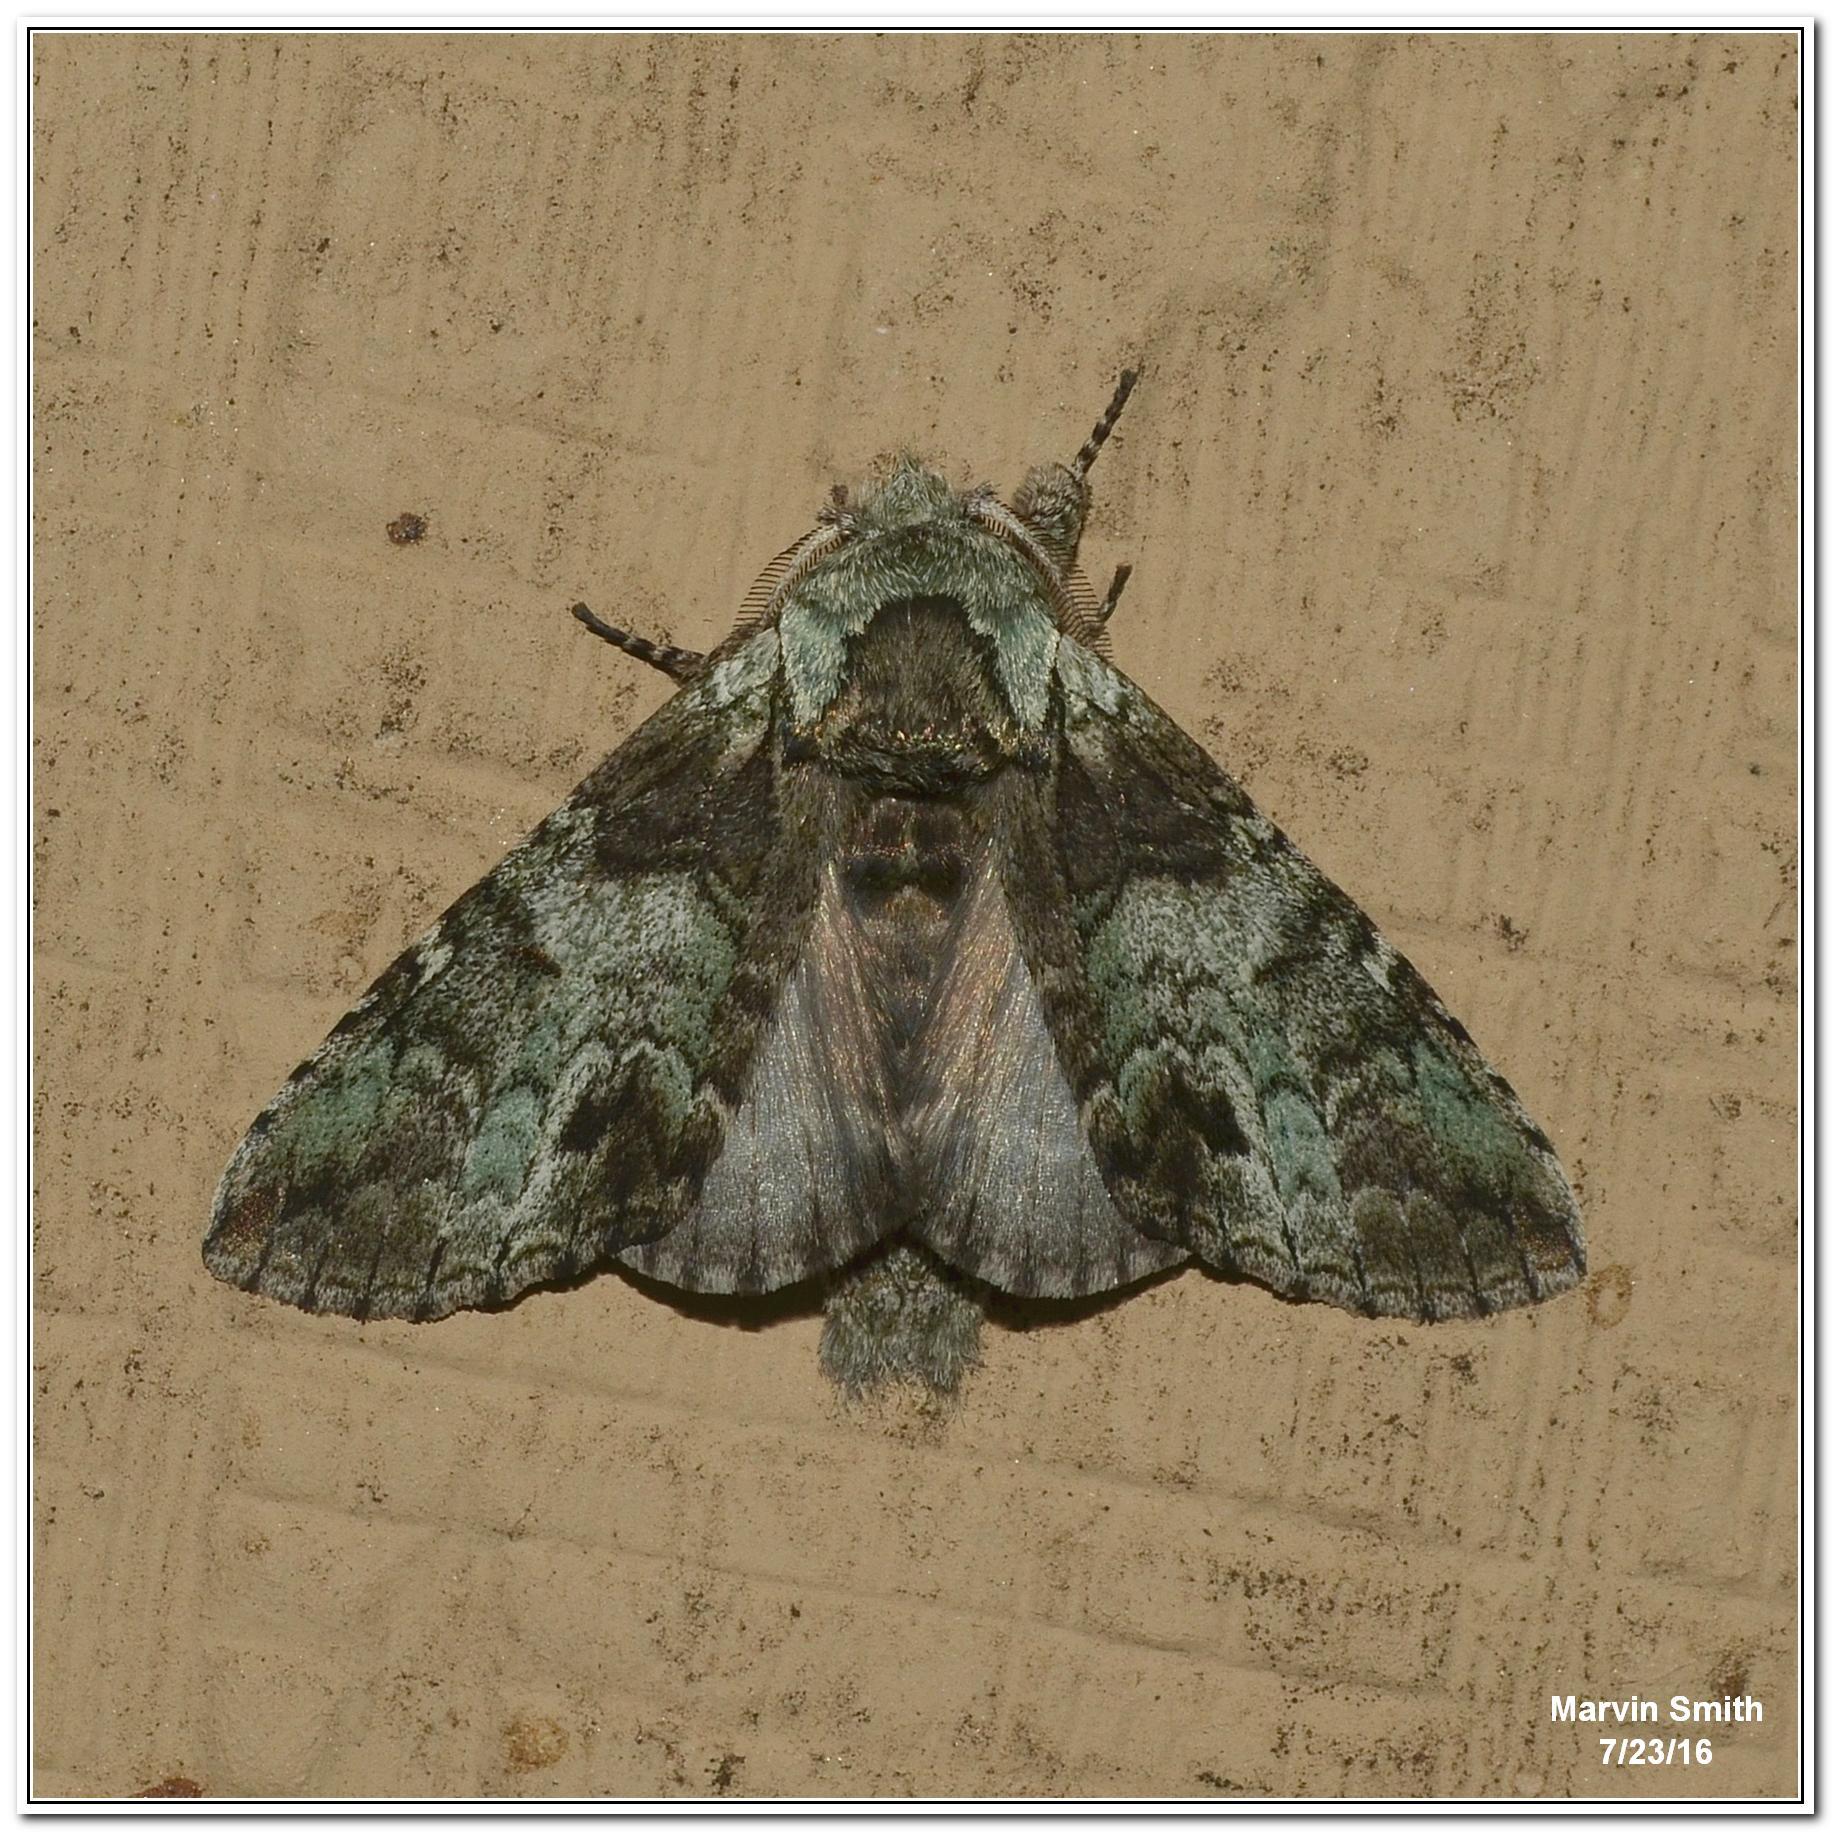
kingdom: Animalia
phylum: Arthropoda
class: Insecta
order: Lepidoptera
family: Notodontidae
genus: Macrurocampa
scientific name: Macrurocampa marthesia
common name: Mottled prominent
